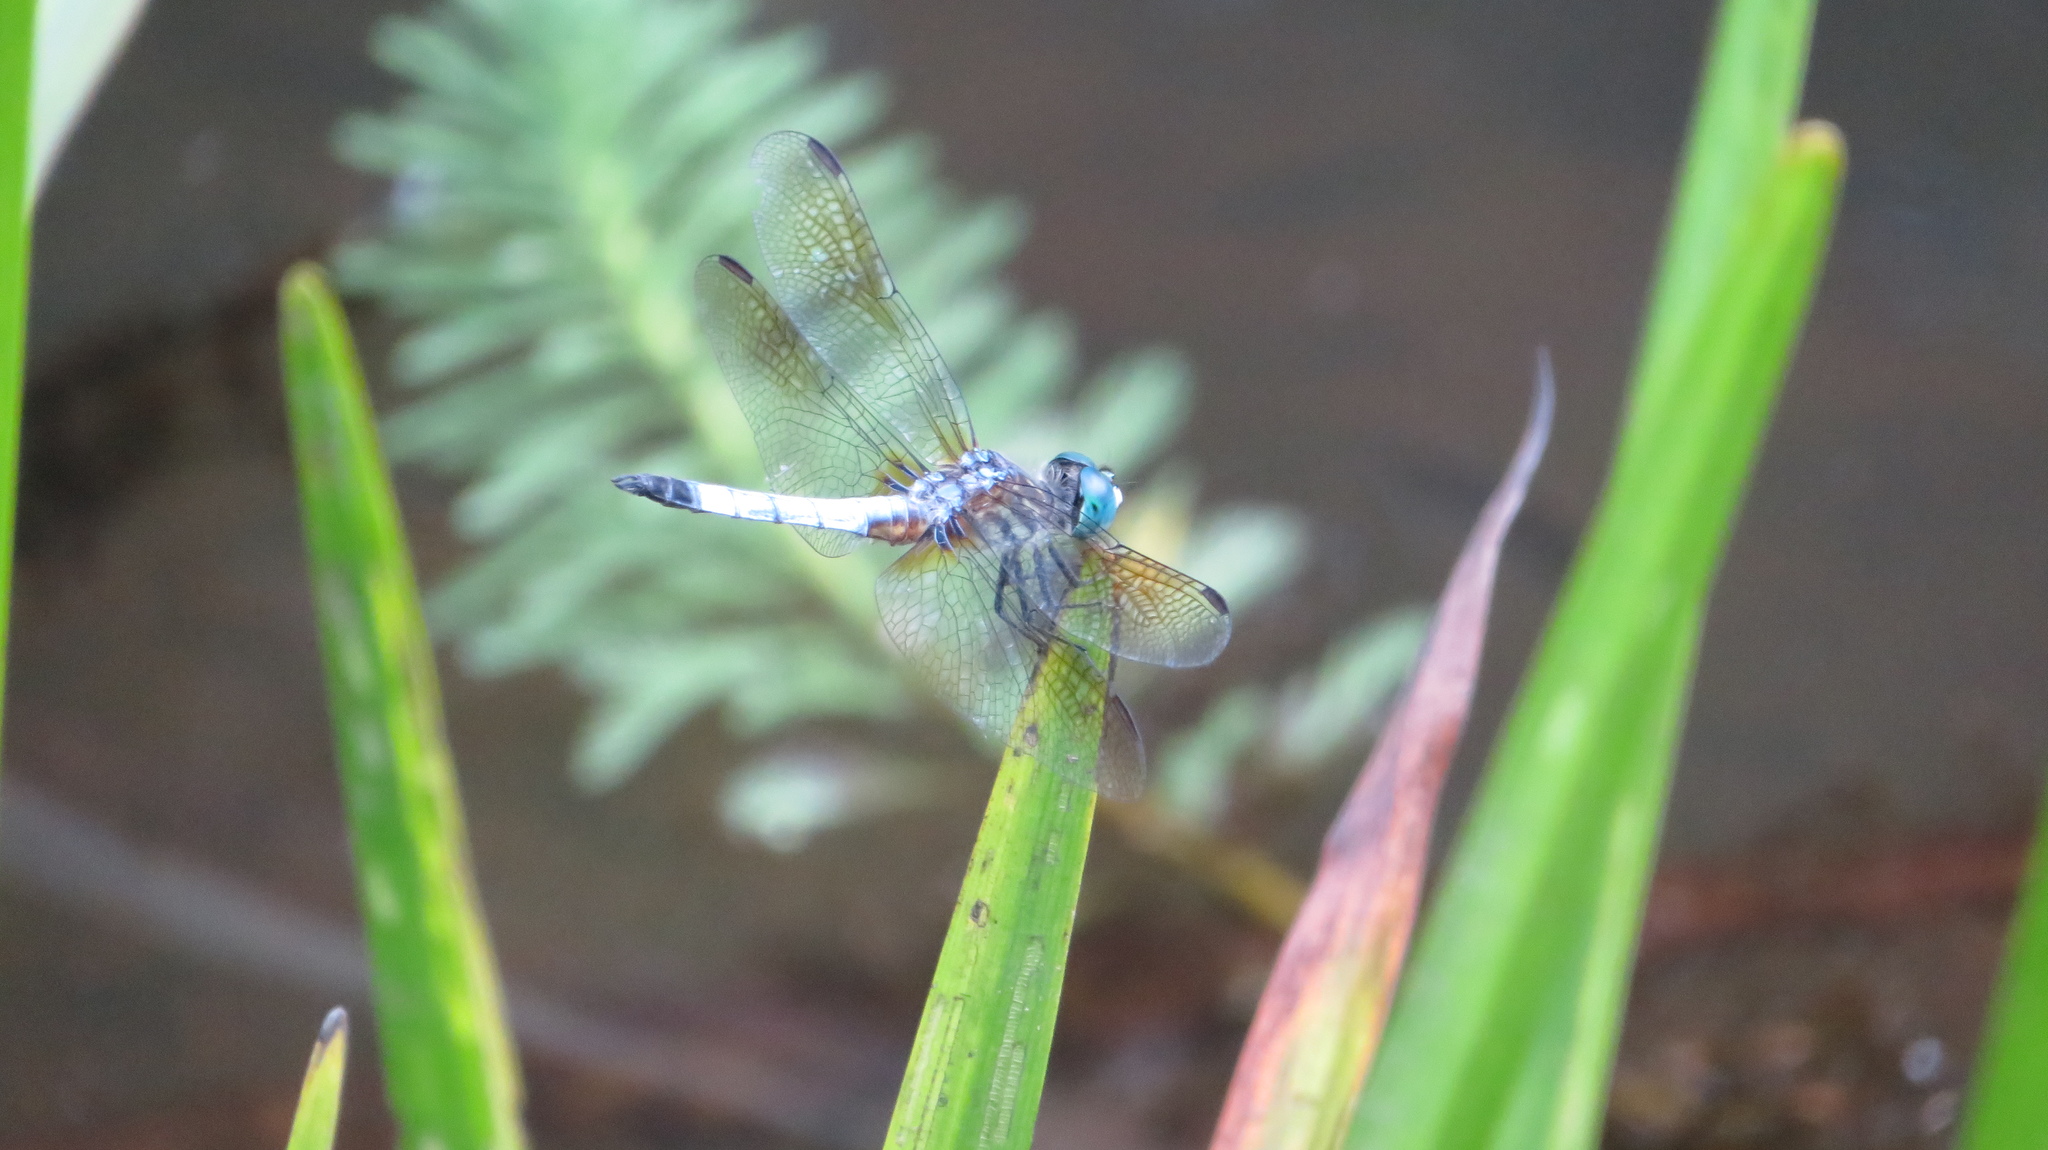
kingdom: Animalia
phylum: Arthropoda
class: Insecta
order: Odonata
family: Libellulidae
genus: Pachydiplax
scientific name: Pachydiplax longipennis
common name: Blue dasher
